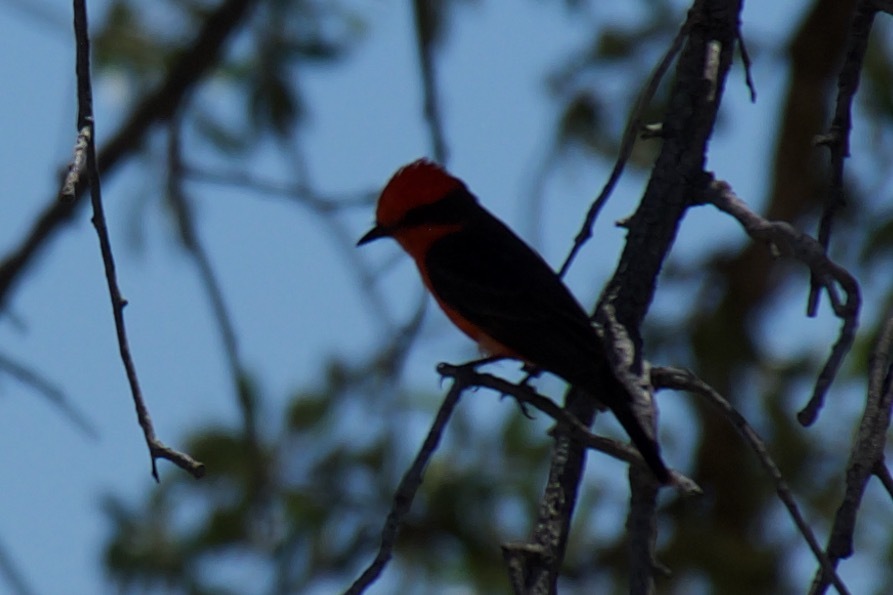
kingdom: Animalia
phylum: Chordata
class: Aves
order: Passeriformes
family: Tyrannidae
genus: Pyrocephalus
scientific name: Pyrocephalus rubinus
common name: Vermilion flycatcher
